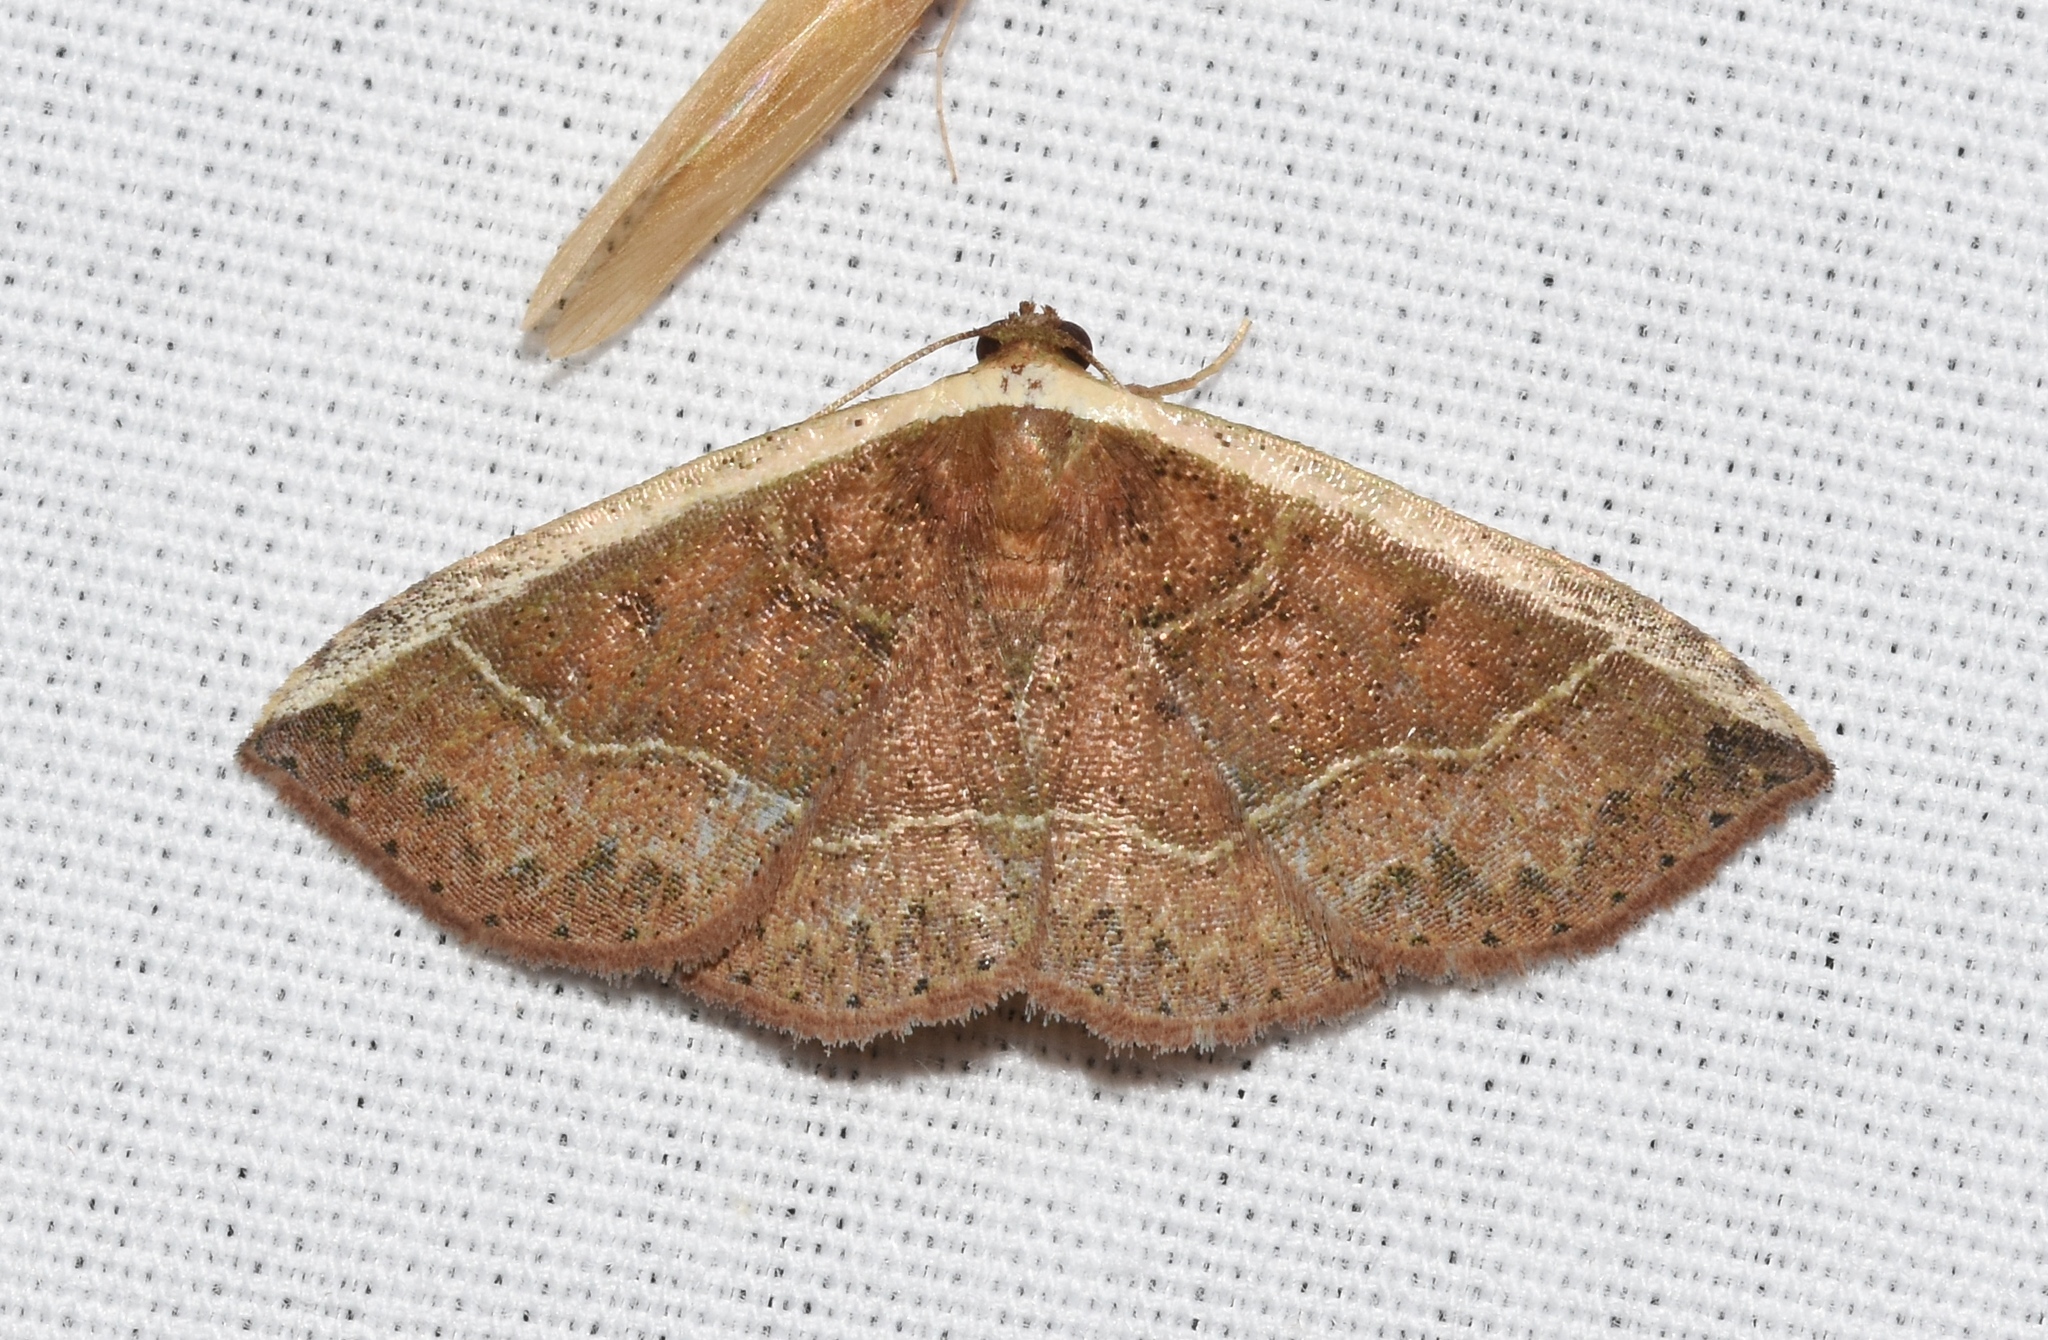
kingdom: Animalia
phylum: Arthropoda
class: Insecta
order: Lepidoptera
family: Noctuidae
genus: Ozarba
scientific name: Ozarba albocostaliata
